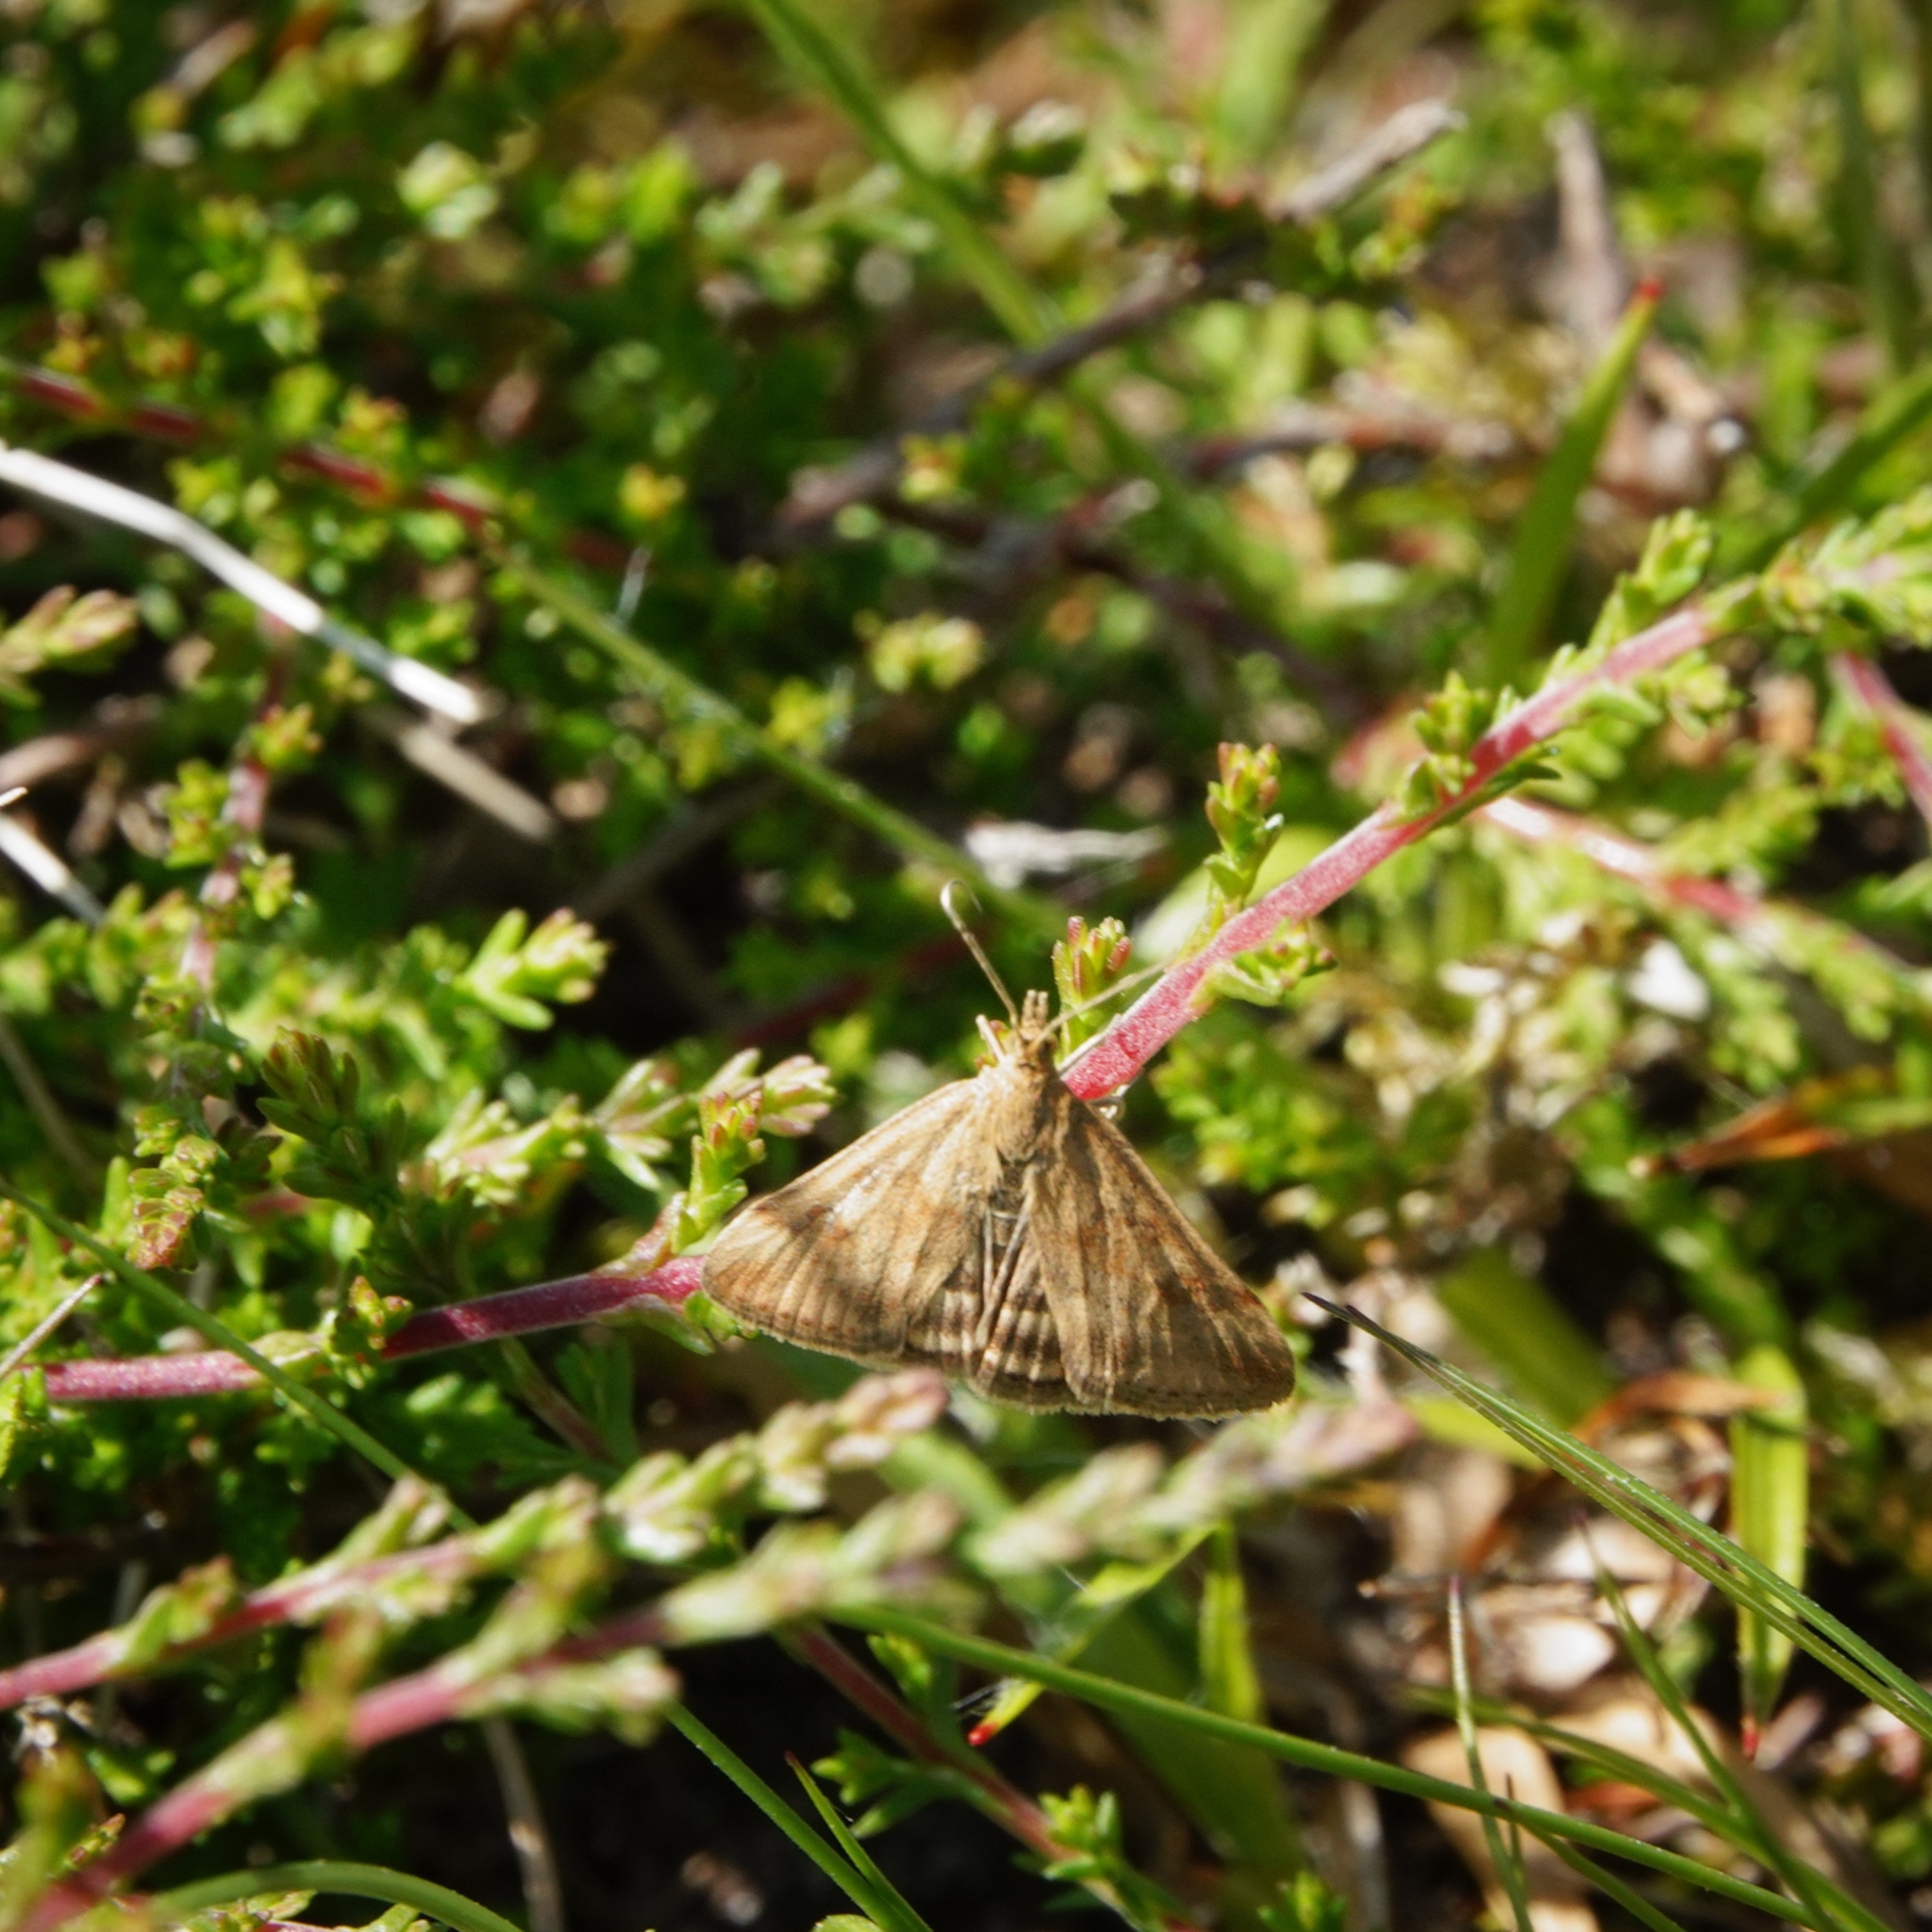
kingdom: Animalia
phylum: Arthropoda
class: Insecta
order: Lepidoptera
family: Crambidae
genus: Pyrausta
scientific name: Pyrausta despicata
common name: Straw-barred pearl
